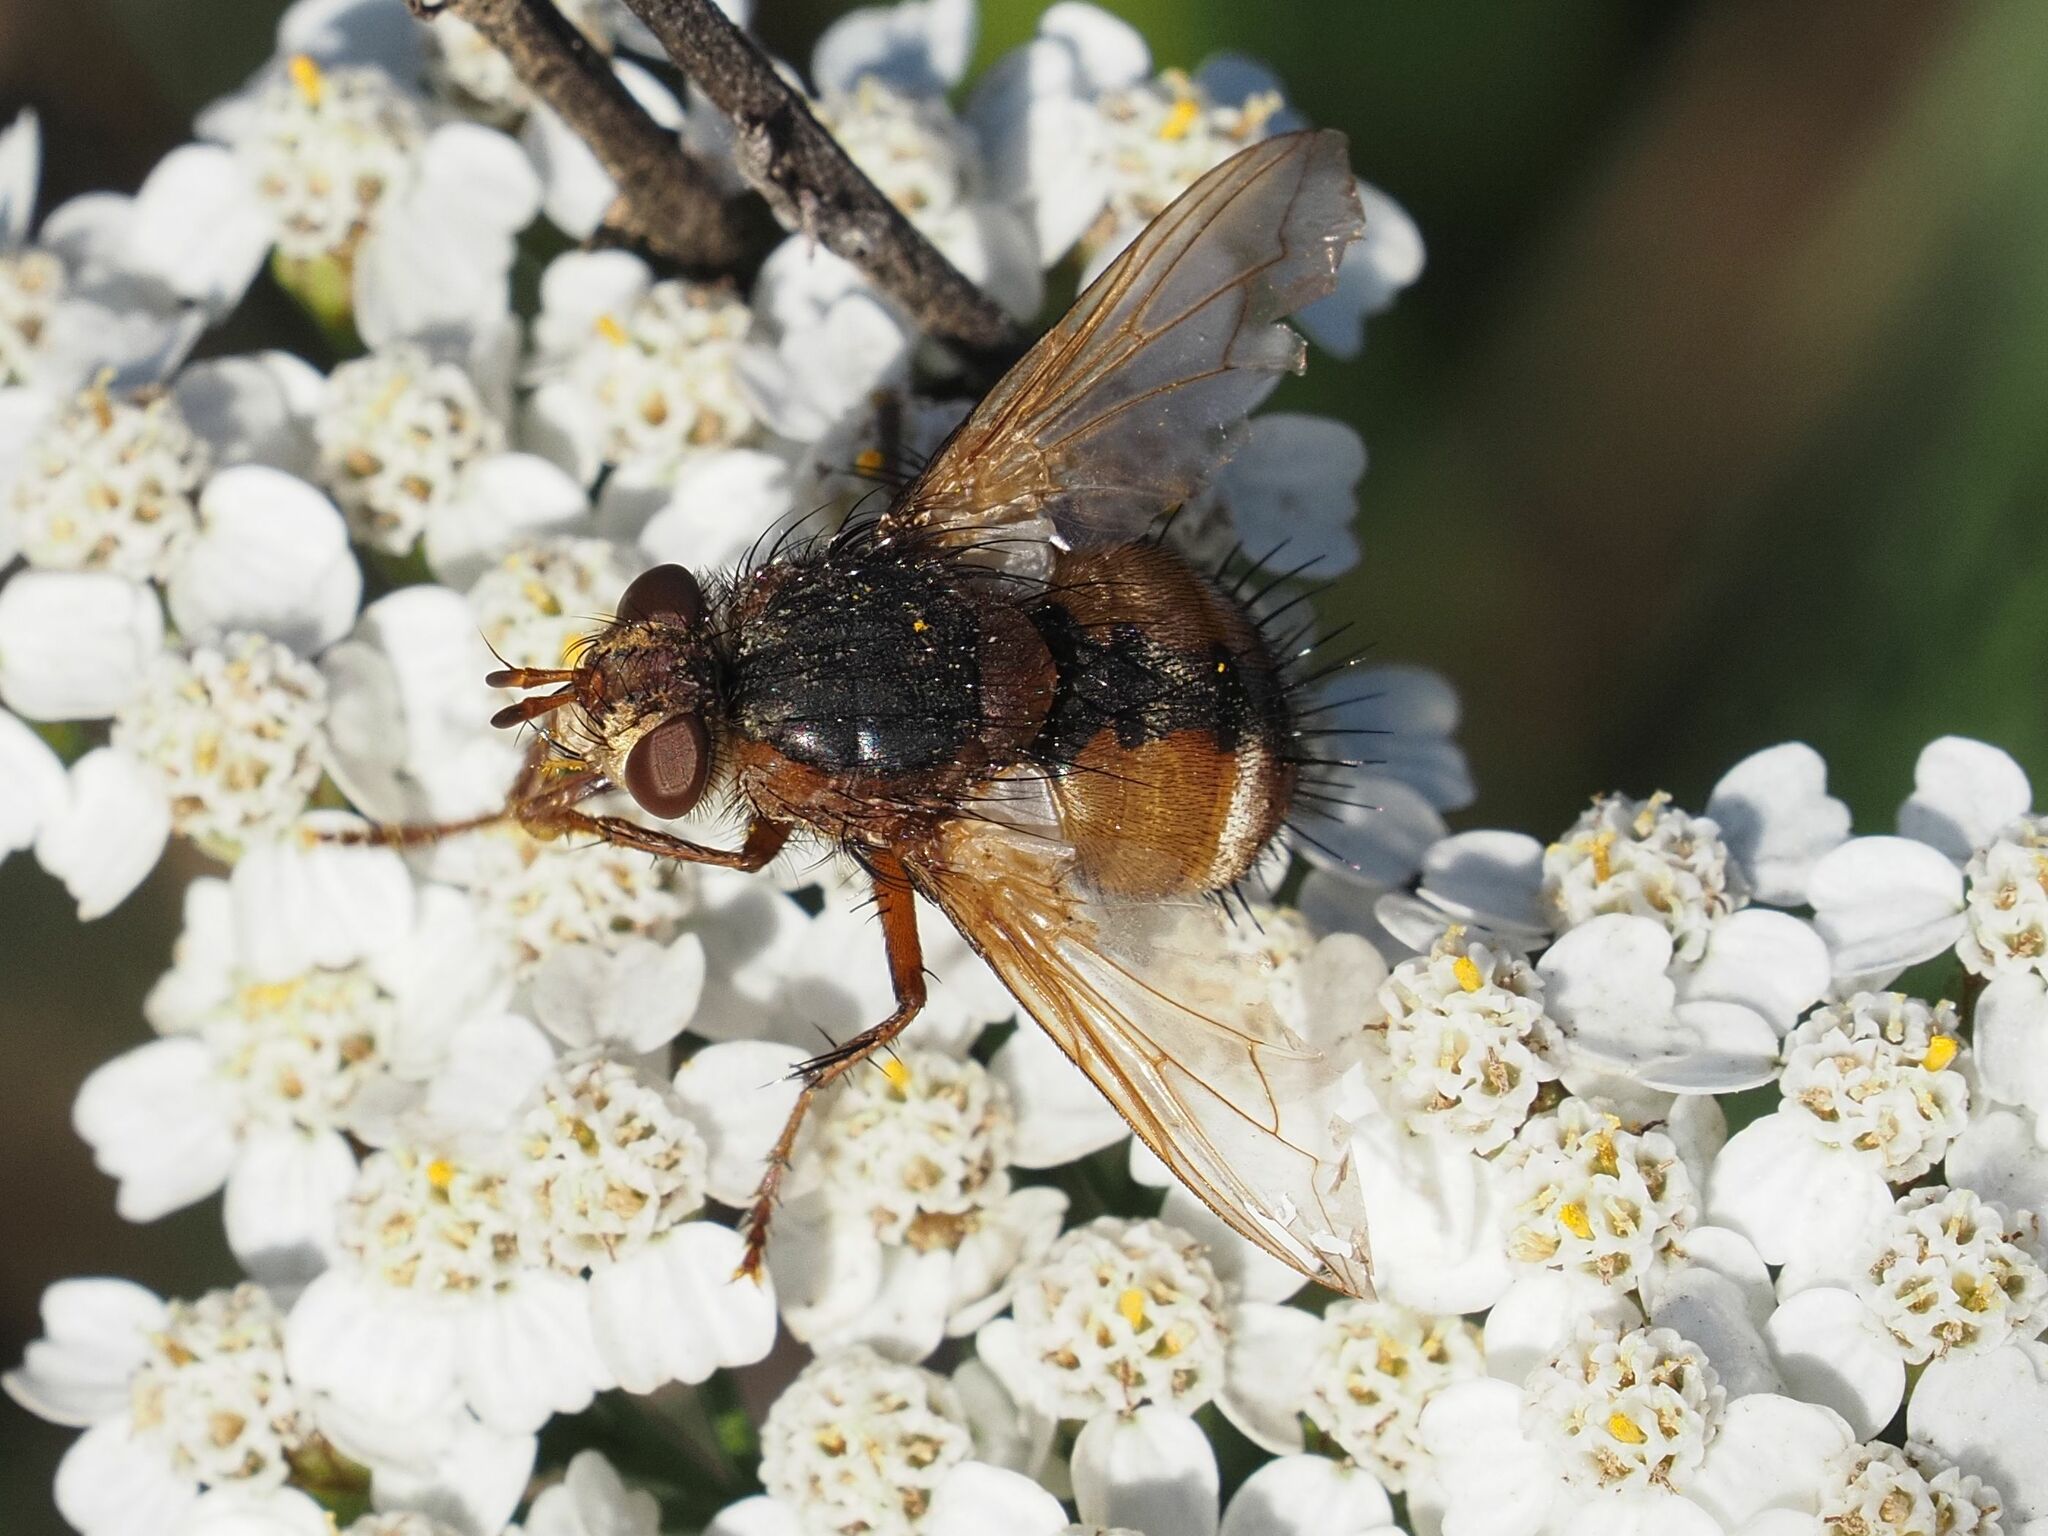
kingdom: Animalia
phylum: Arthropoda
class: Insecta
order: Diptera
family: Tachinidae
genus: Tachina
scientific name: Tachina fera
